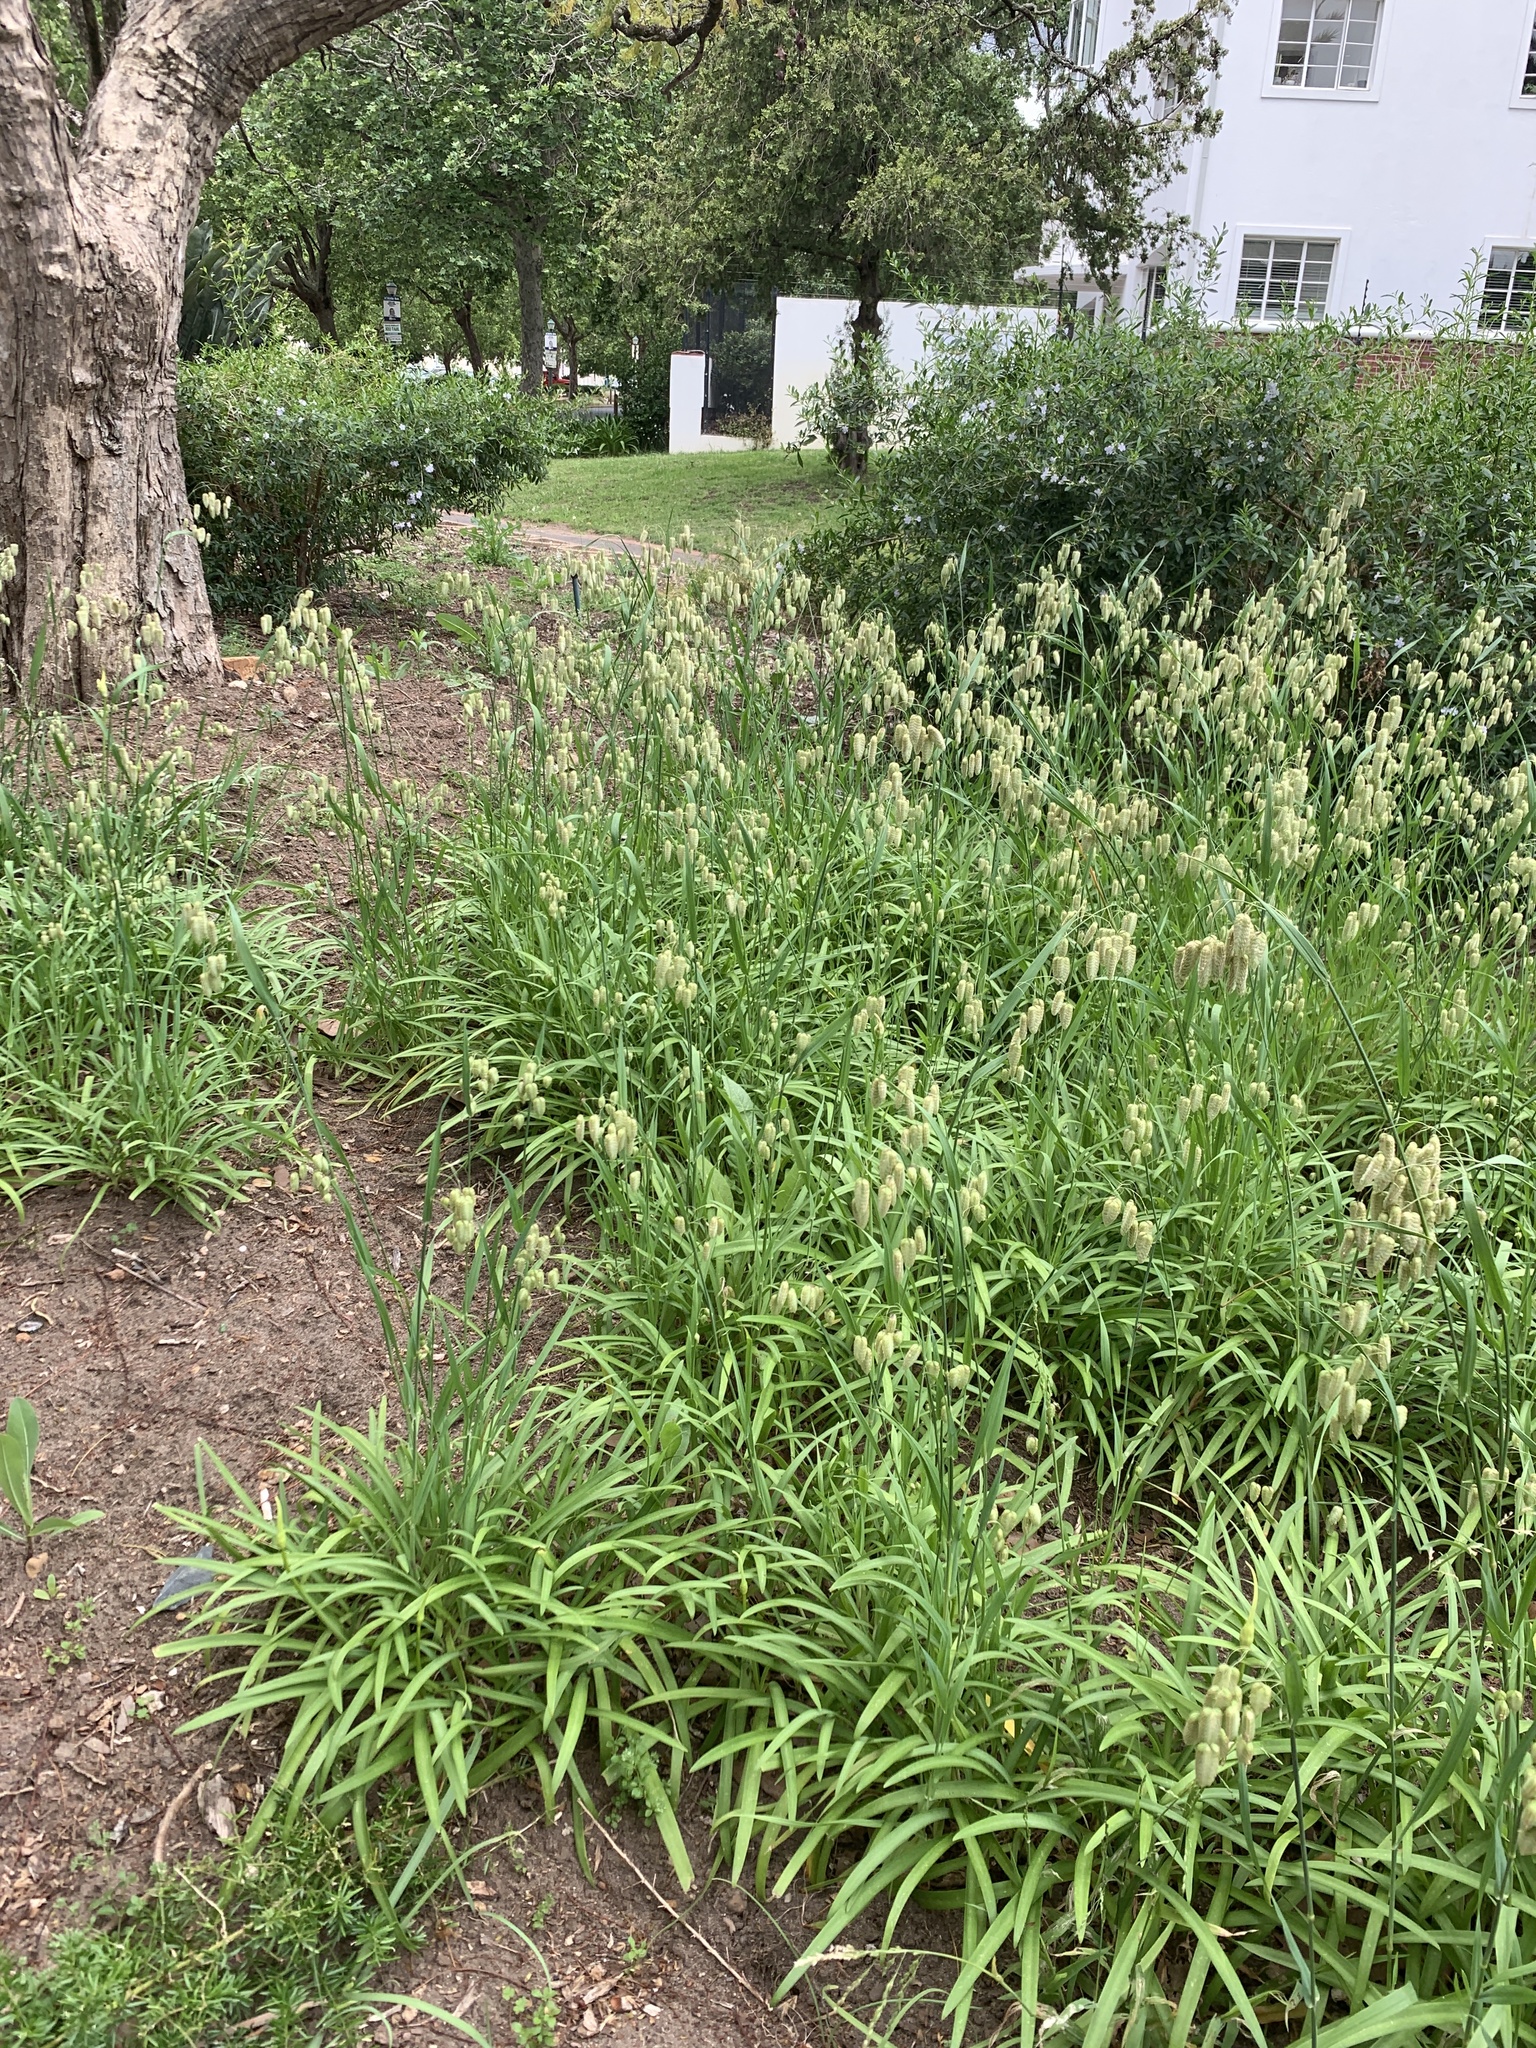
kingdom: Plantae
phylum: Tracheophyta
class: Liliopsida
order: Poales
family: Poaceae
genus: Briza
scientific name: Briza maxima
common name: Big quakinggrass
